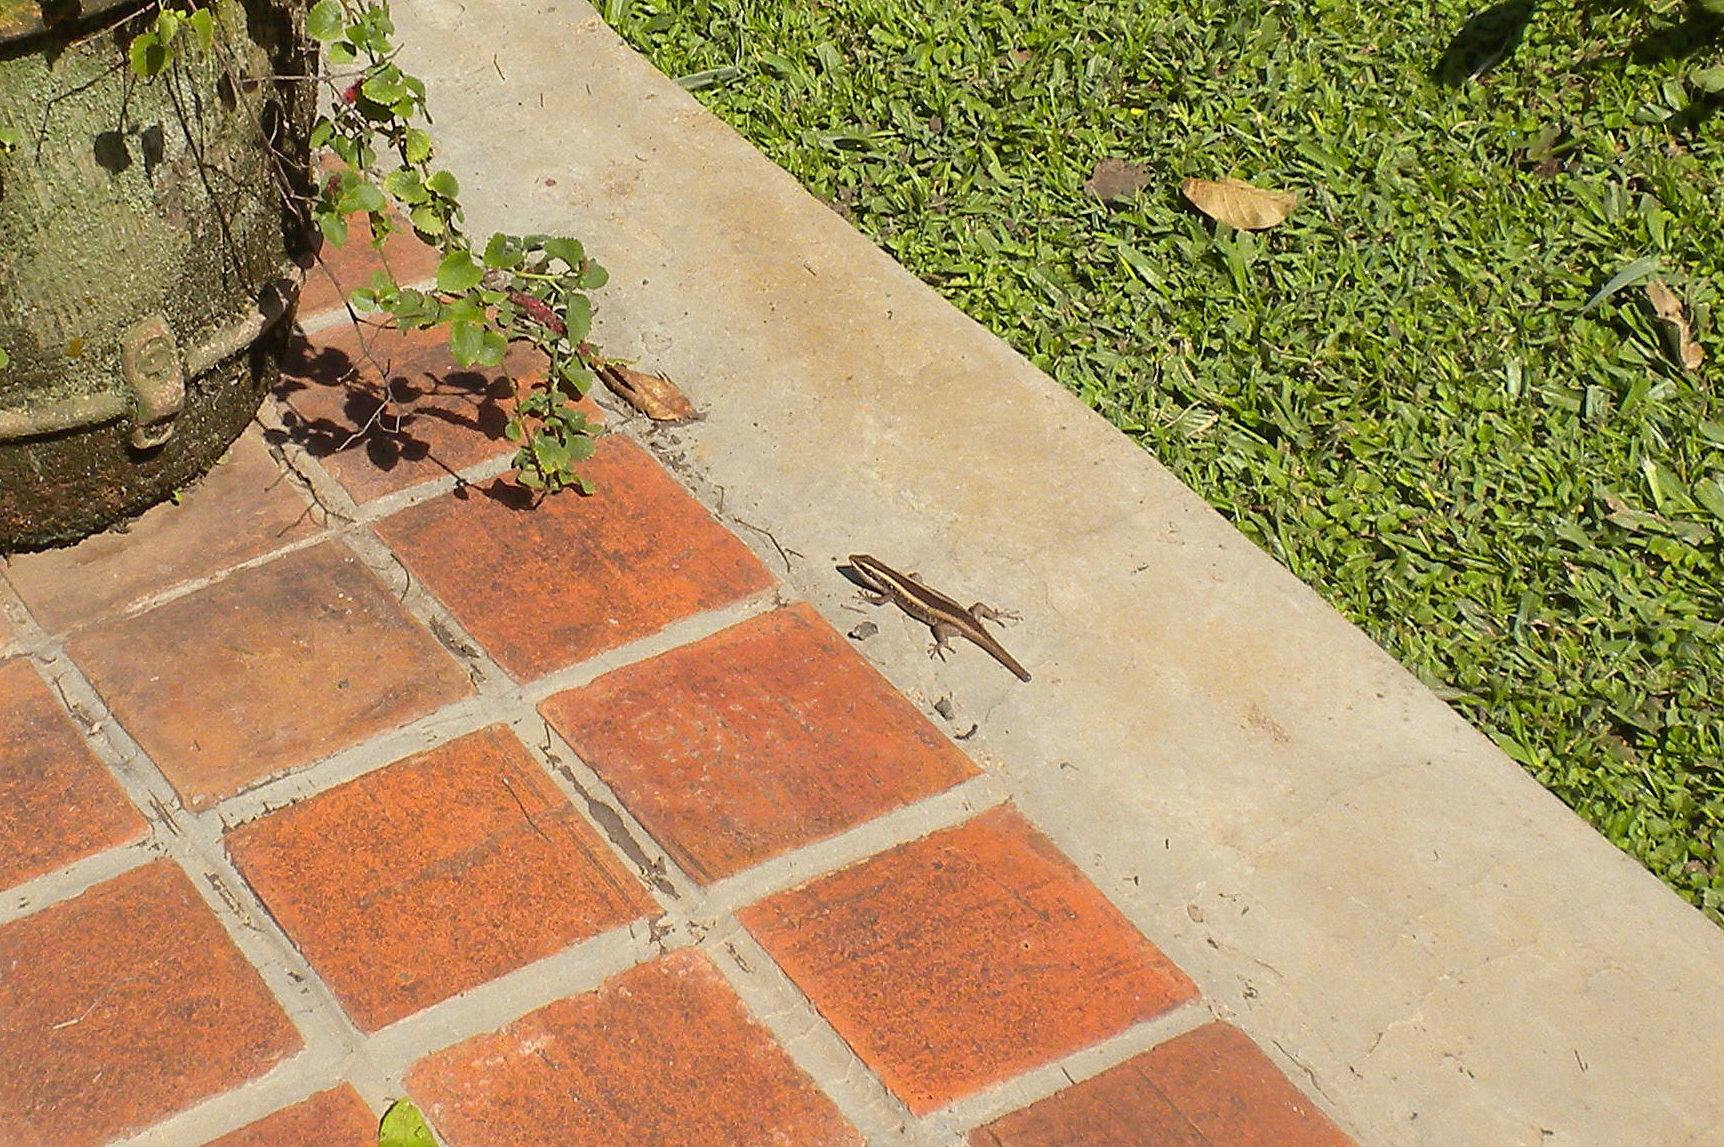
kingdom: Animalia
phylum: Chordata
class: Squamata
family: Scincidae
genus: Trachylepis
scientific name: Trachylepis striata
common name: African striped mabuya
